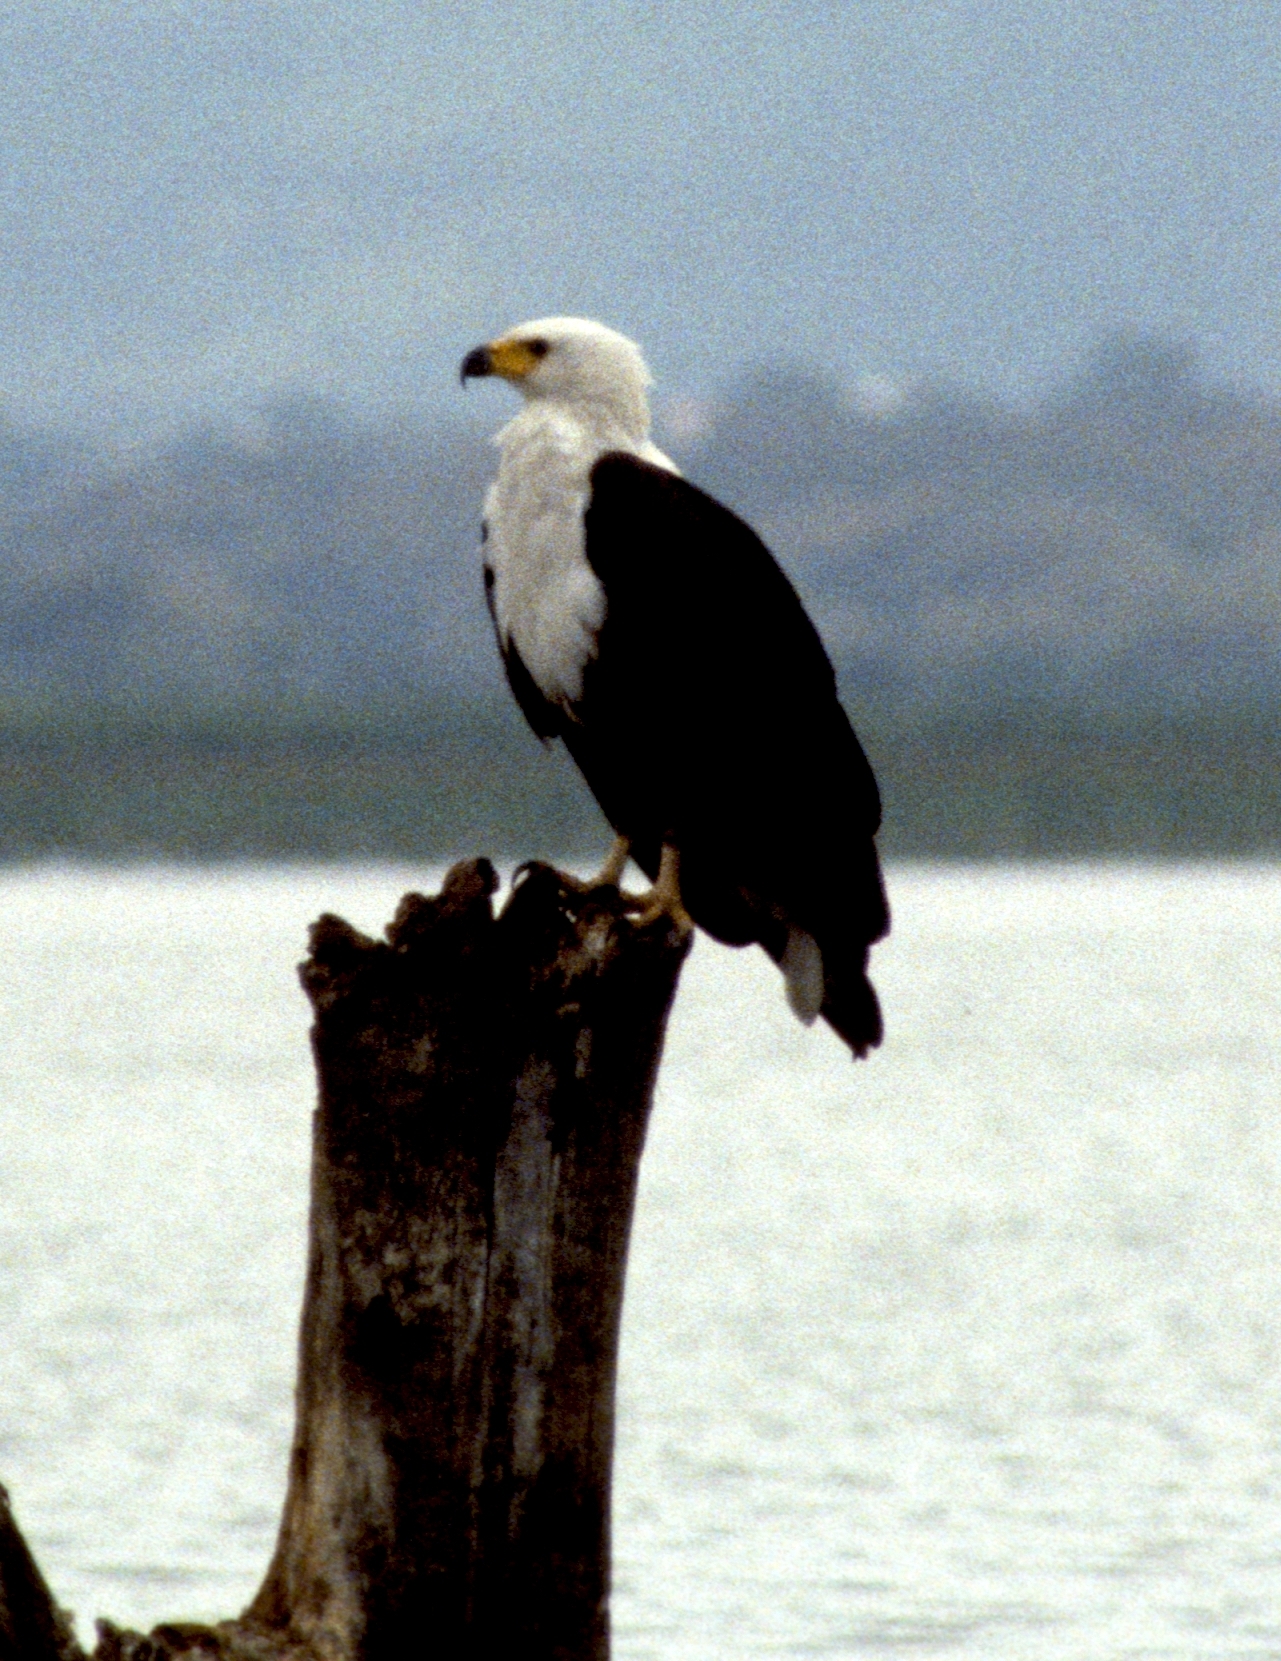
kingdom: Animalia
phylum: Chordata
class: Aves
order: Accipitriformes
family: Accipitridae
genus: Haliaeetus
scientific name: Haliaeetus vocifer
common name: African fish eagle
